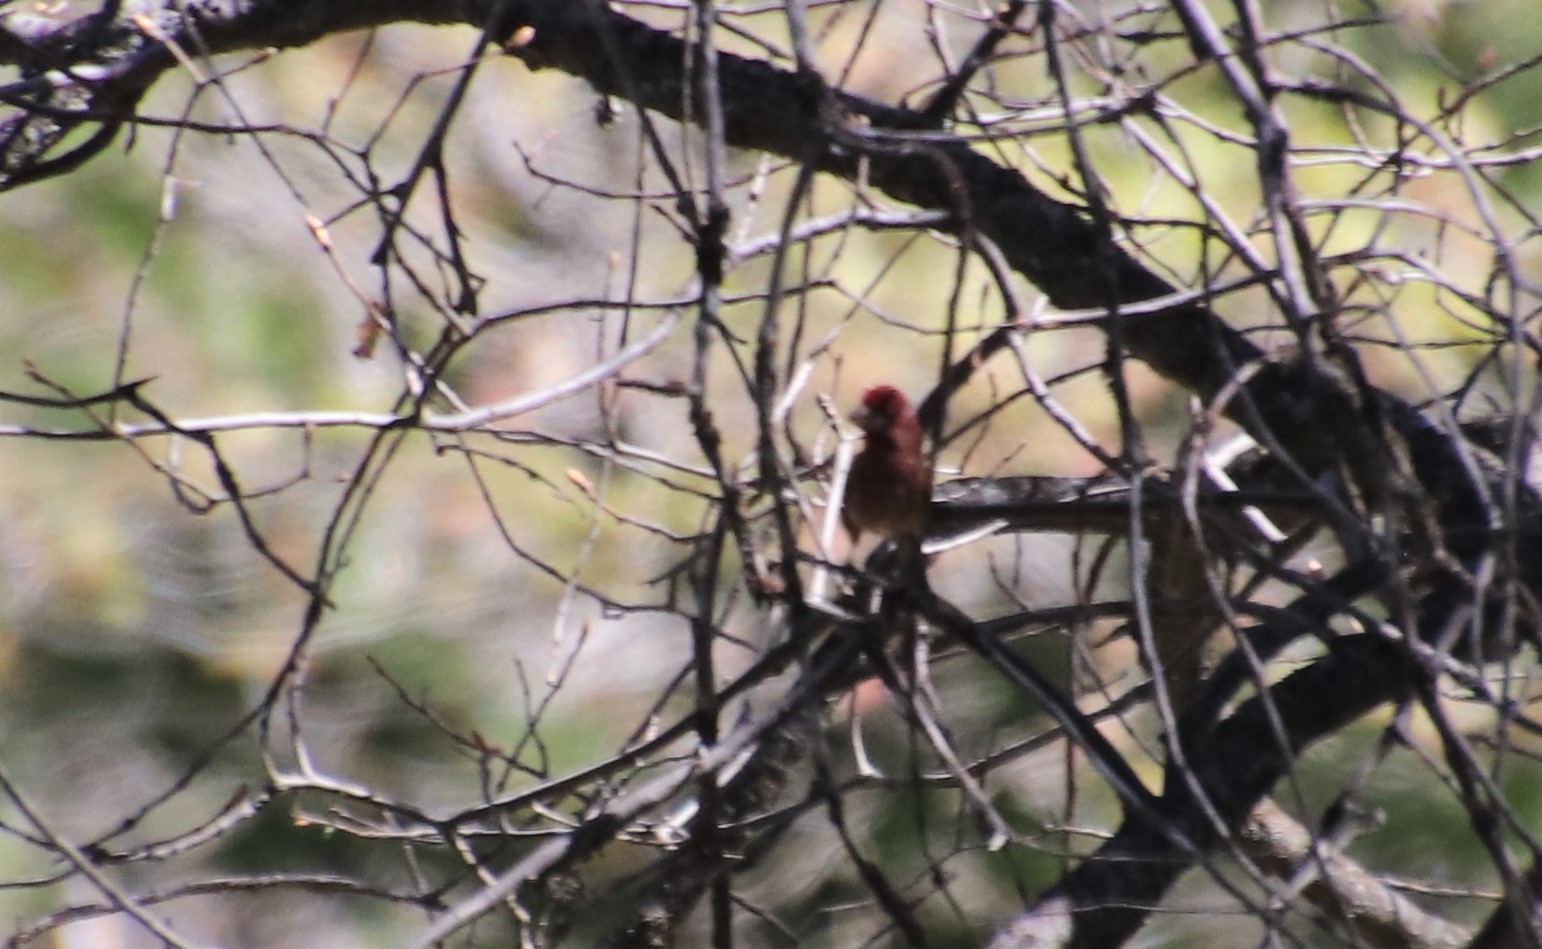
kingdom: Animalia
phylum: Chordata
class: Aves
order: Passeriformes
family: Fringillidae
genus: Haemorhous
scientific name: Haemorhous purpureus
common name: Purple finch
